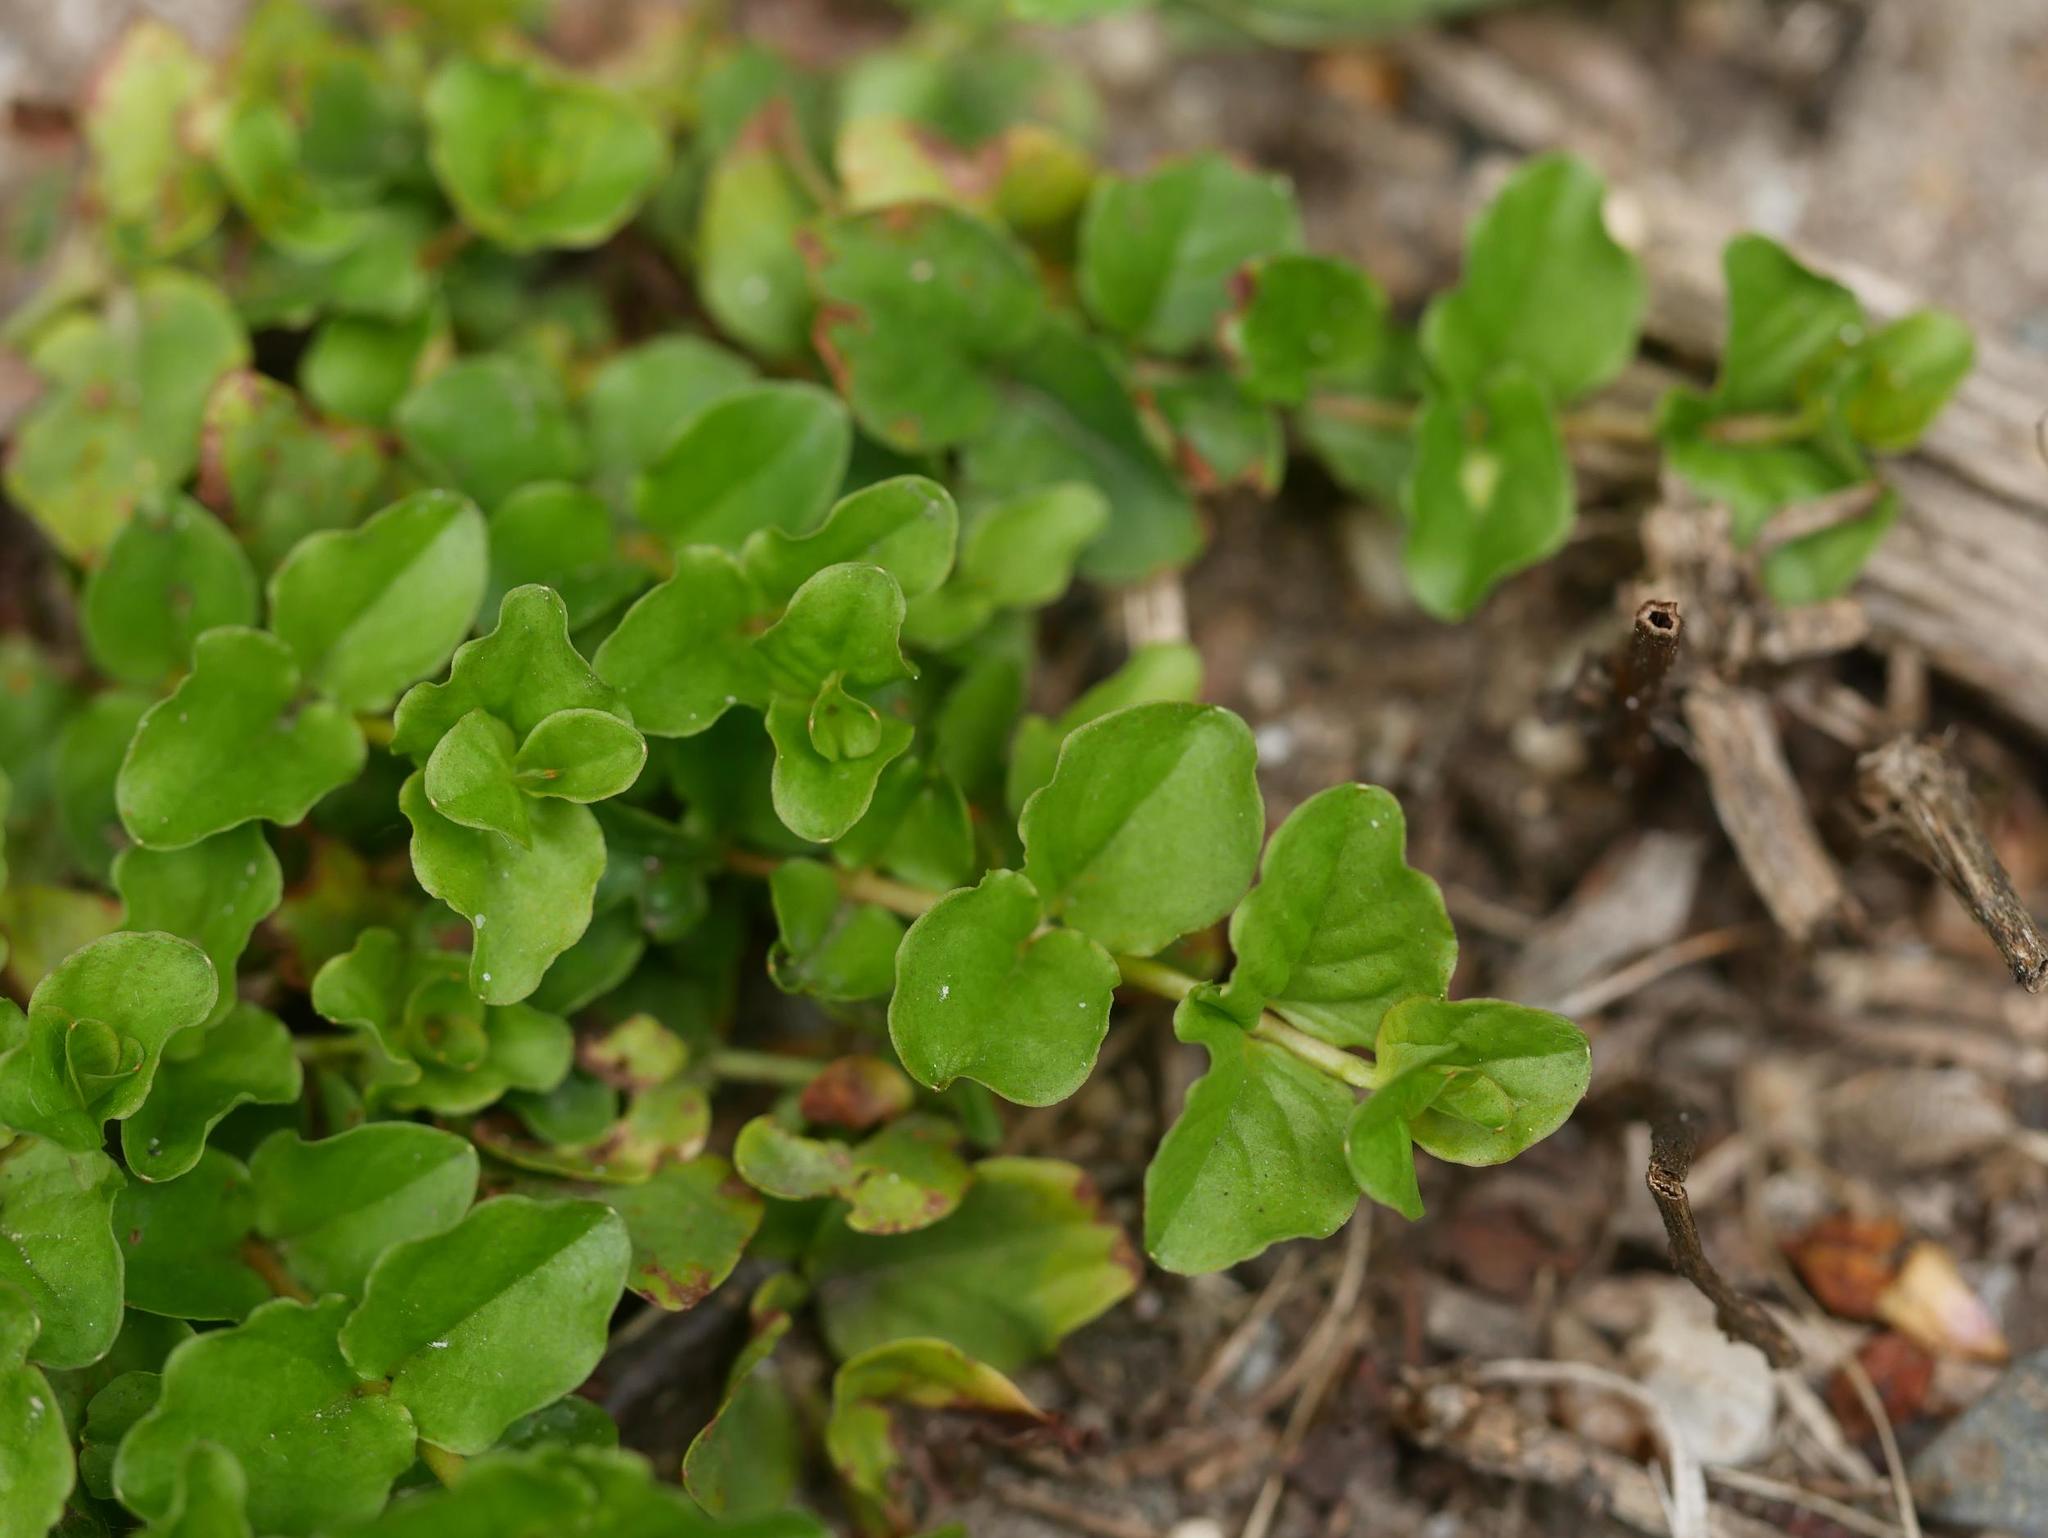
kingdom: Plantae
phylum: Tracheophyta
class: Magnoliopsida
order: Ericales
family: Primulaceae
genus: Lysimachia
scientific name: Lysimachia nummularia
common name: Moneywort
